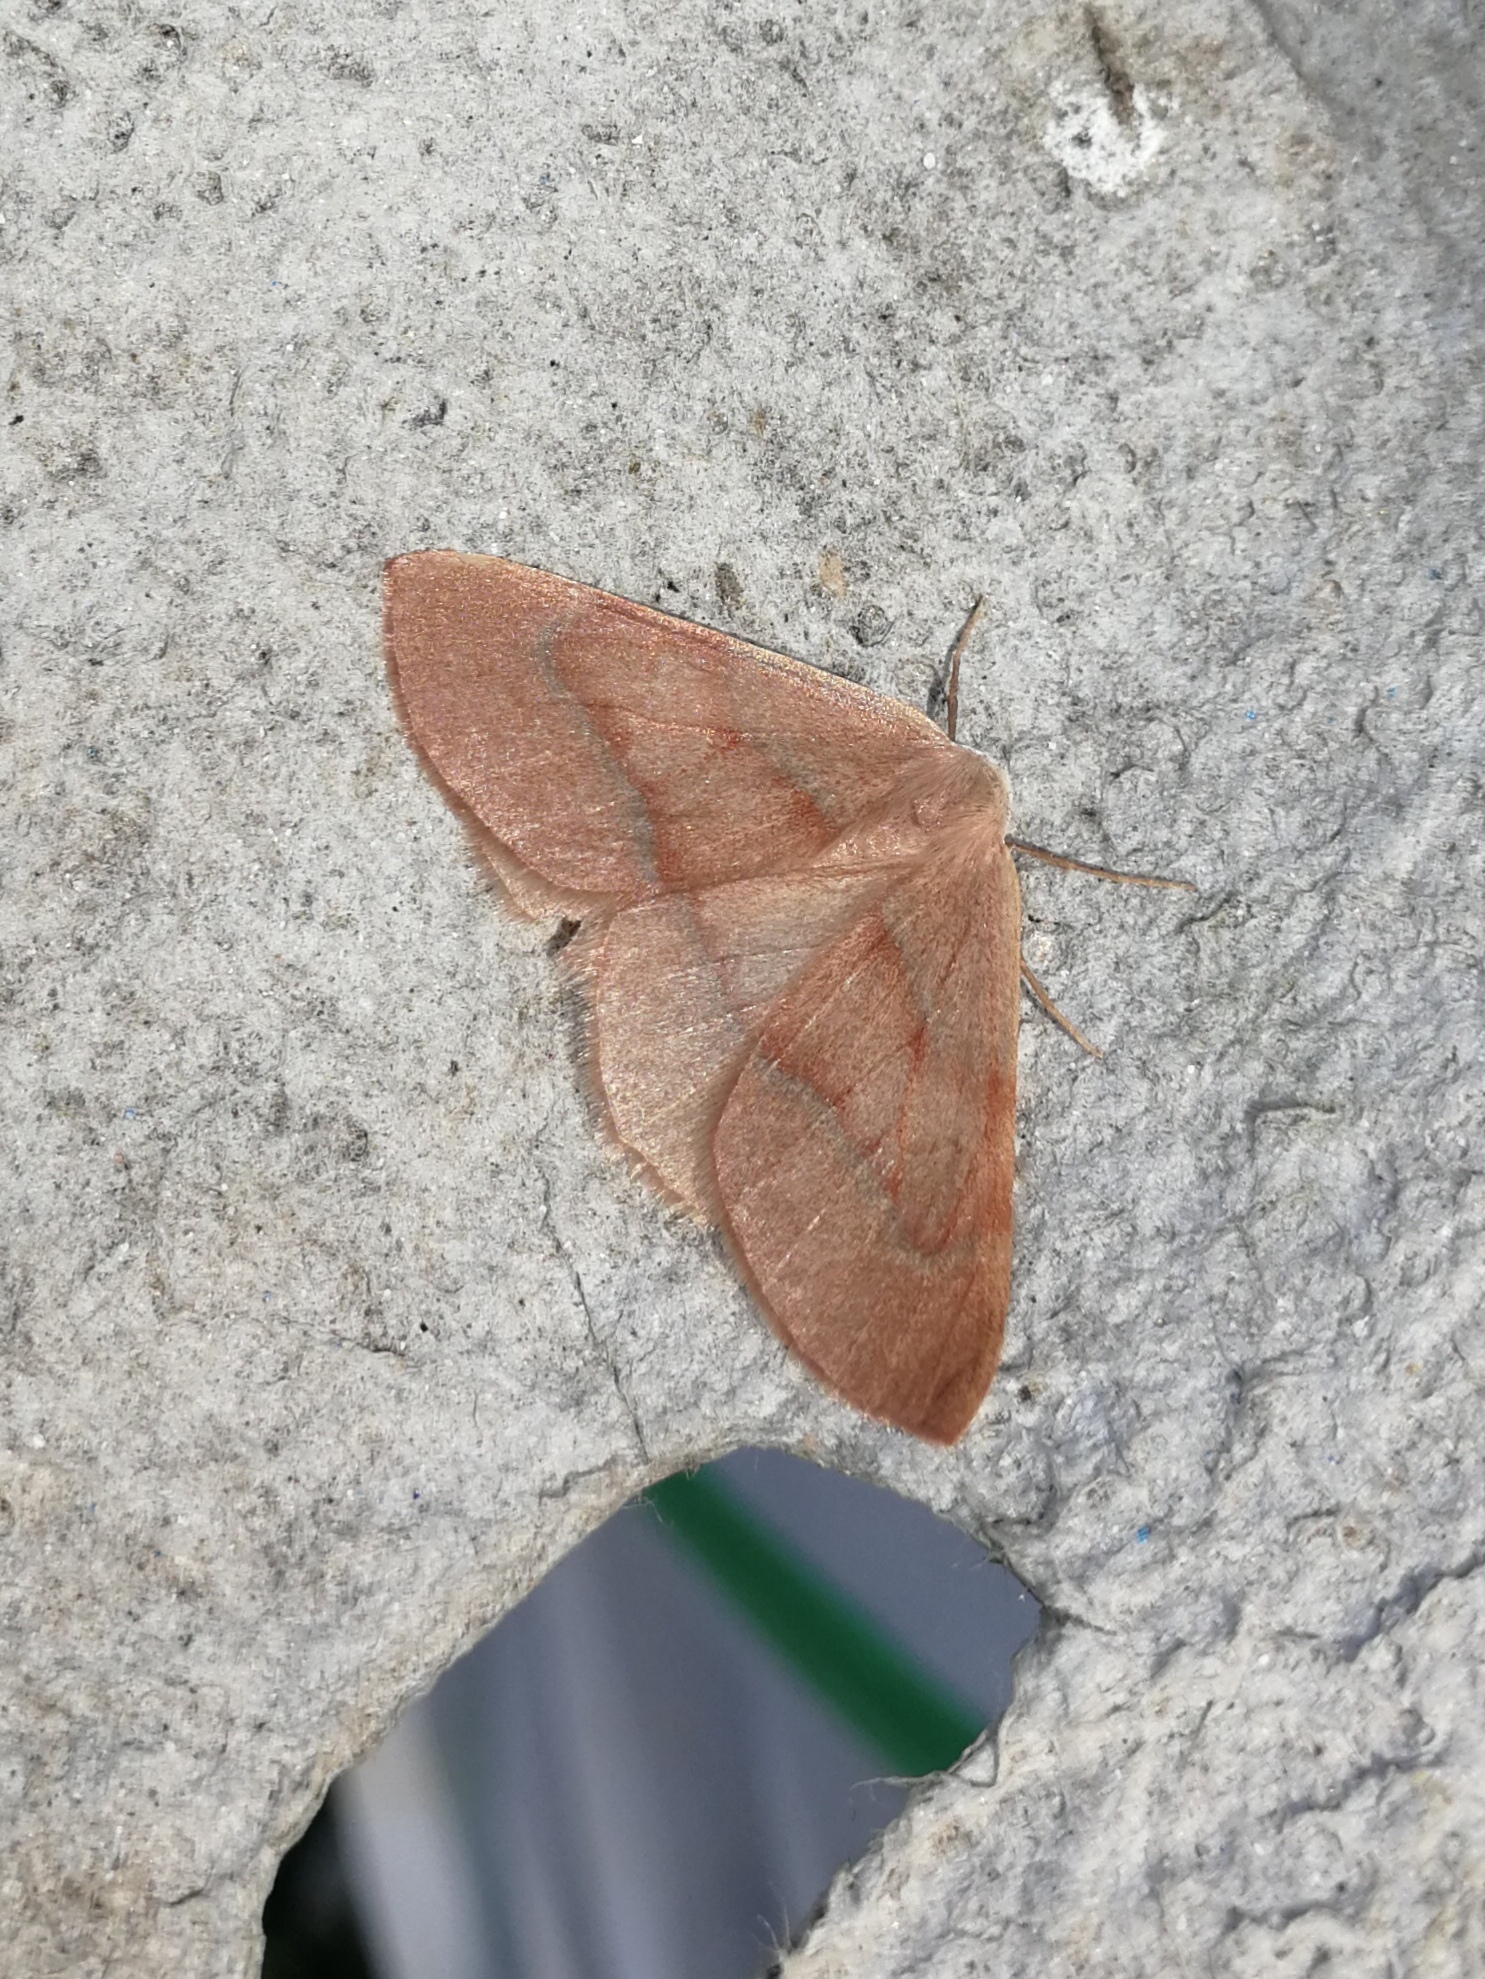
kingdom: Animalia
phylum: Arthropoda
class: Insecta
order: Lepidoptera
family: Geometridae
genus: Hylaea
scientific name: Hylaea fasciaria
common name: Barred red
